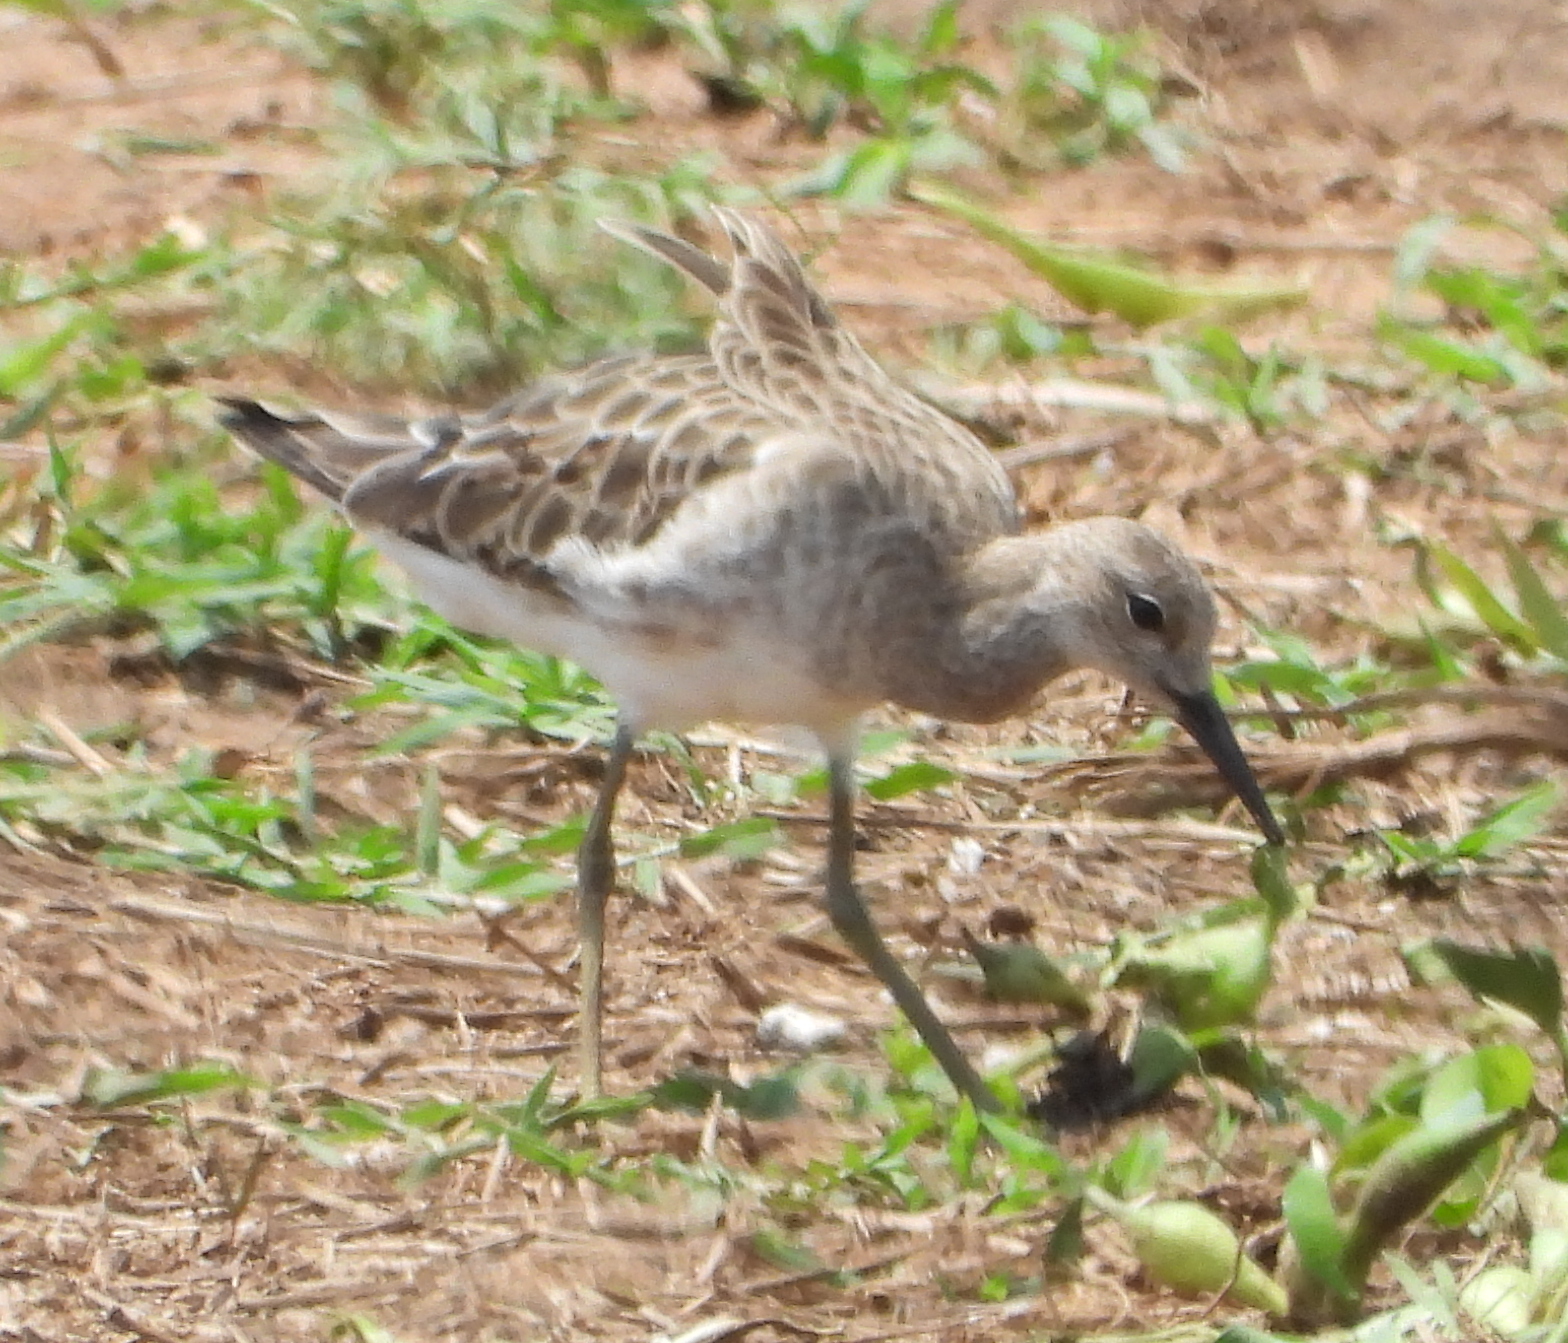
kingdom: Animalia
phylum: Chordata
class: Aves
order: Charadriiformes
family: Scolopacidae
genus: Calidris
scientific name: Calidris pugnax
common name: Ruff
